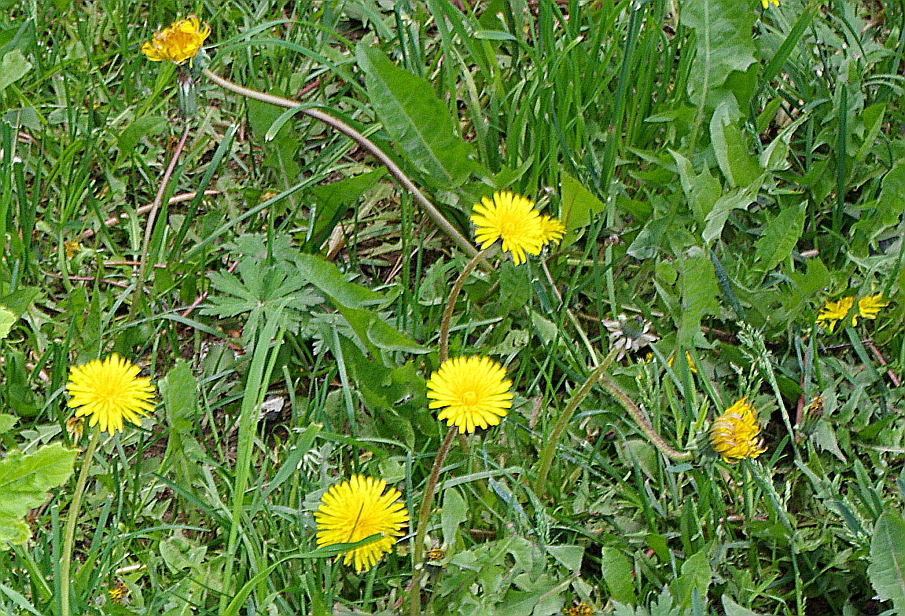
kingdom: Plantae
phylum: Tracheophyta
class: Magnoliopsida
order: Asterales
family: Asteraceae
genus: Taraxacum
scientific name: Taraxacum officinale
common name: Common dandelion
